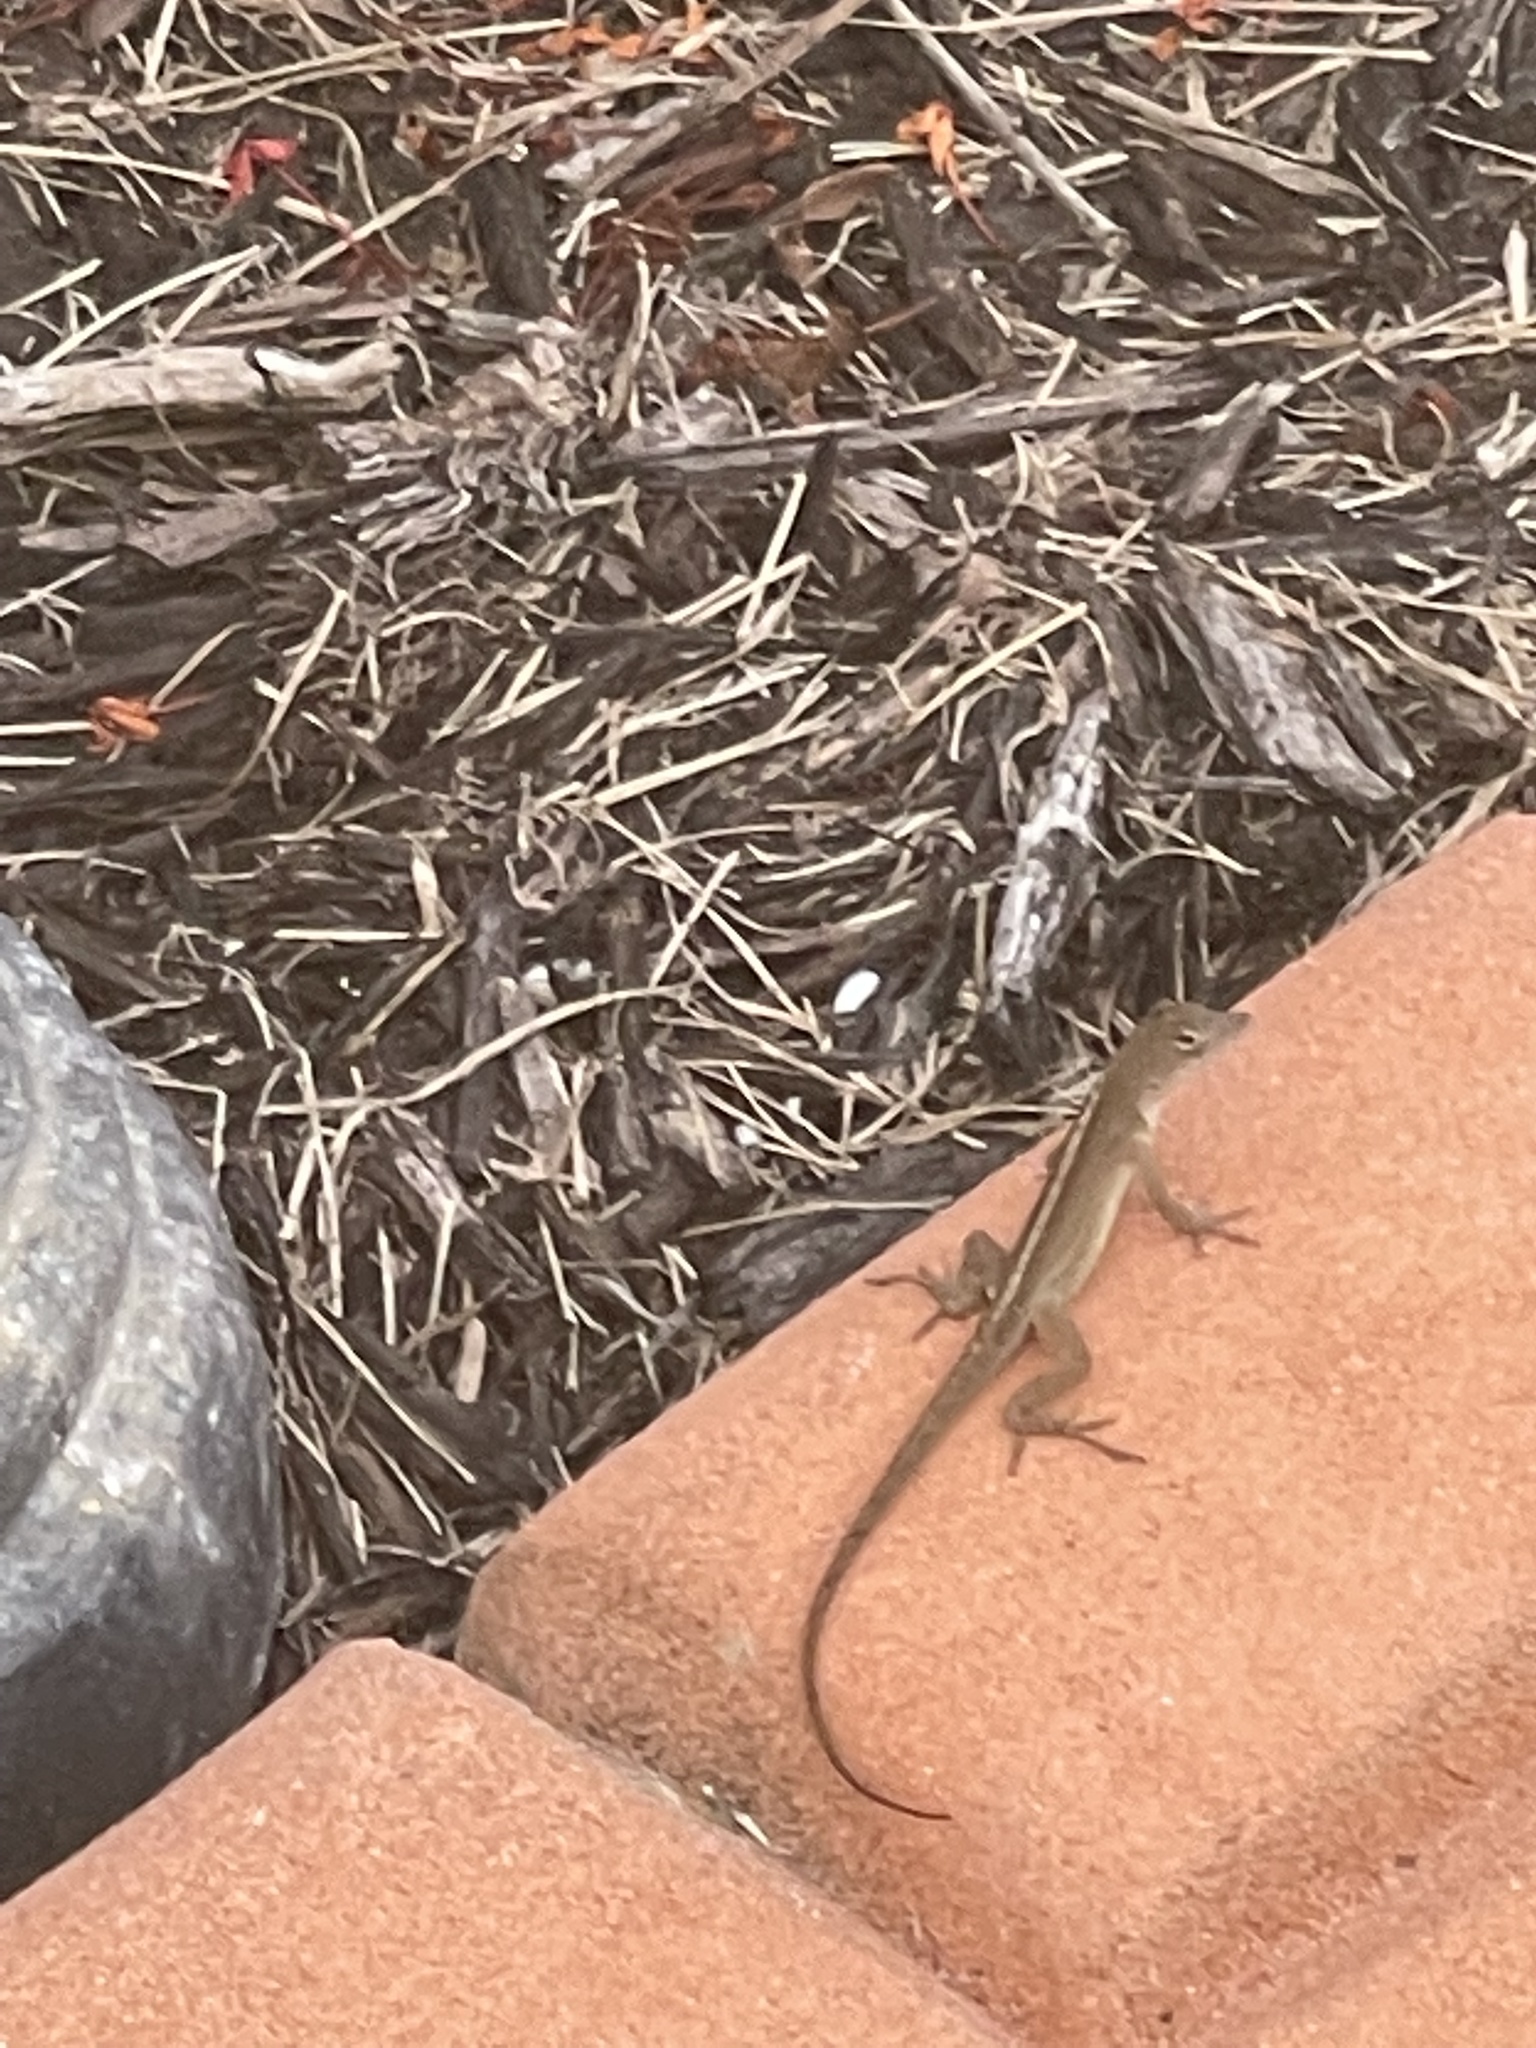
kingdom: Animalia
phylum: Chordata
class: Squamata
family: Dactyloidae
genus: Anolis
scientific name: Anolis sagrei
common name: Brown anole
